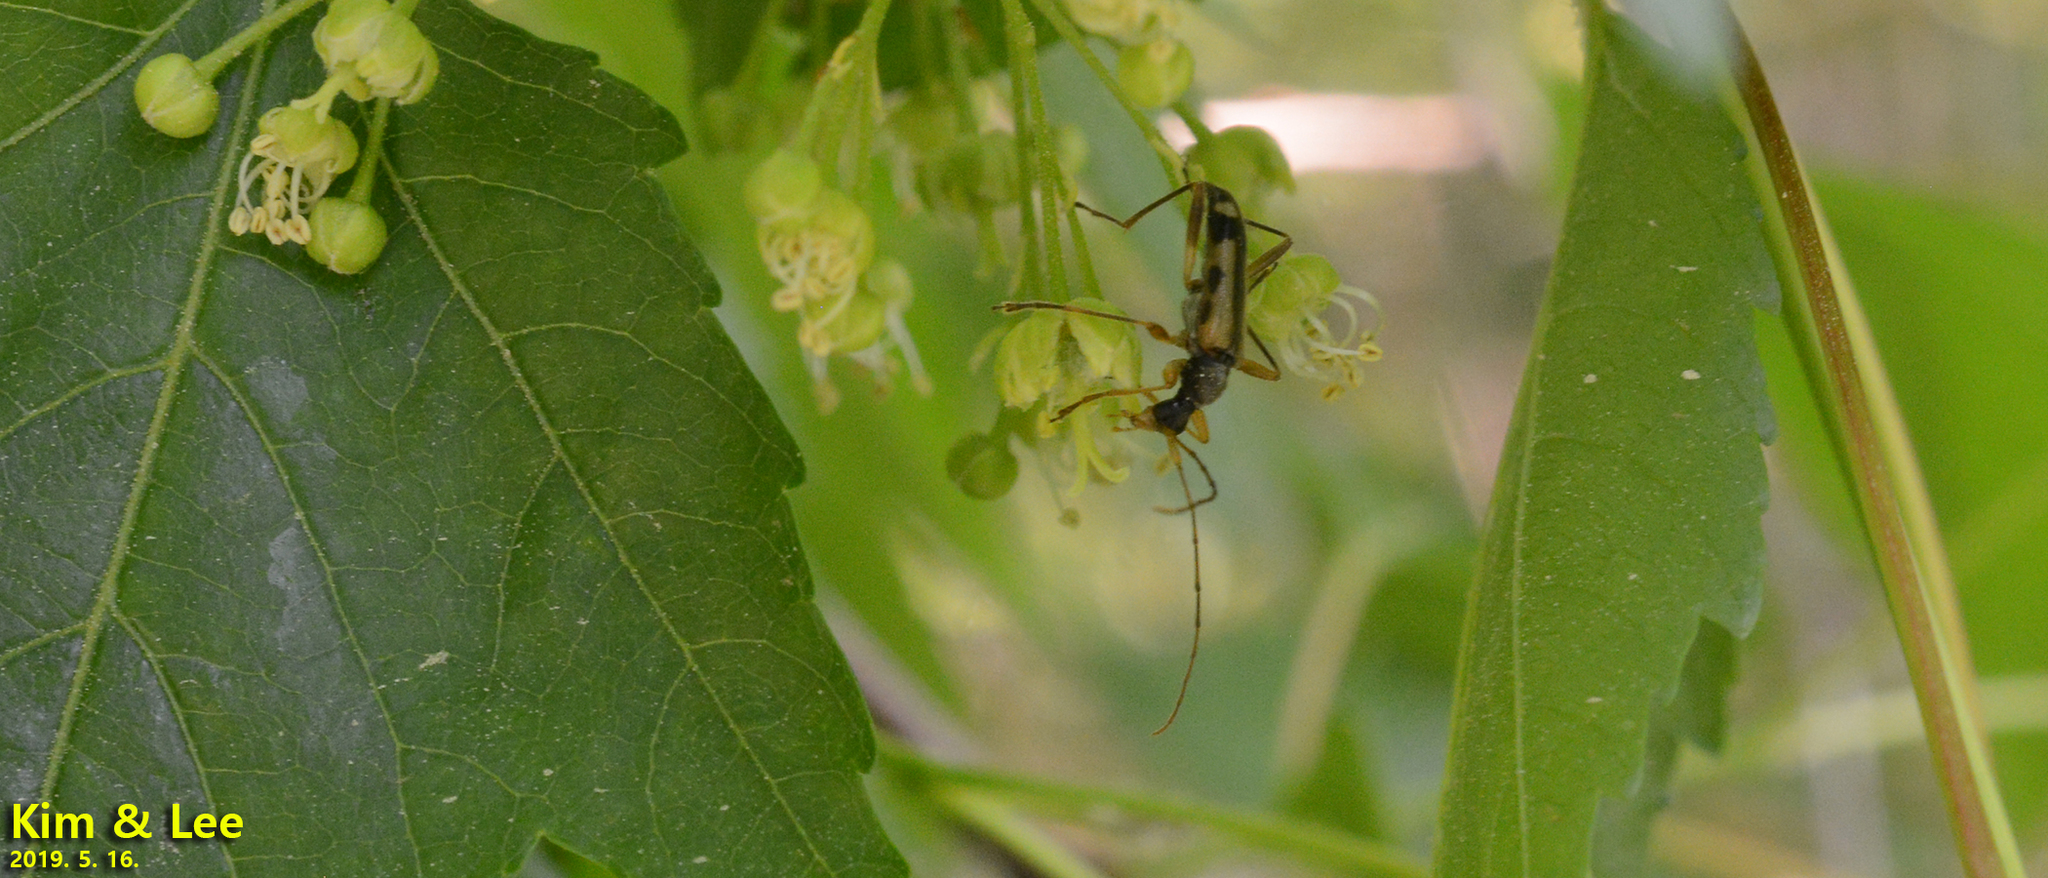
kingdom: Animalia
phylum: Arthropoda
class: Insecta
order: Coleoptera
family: Cerambycidae
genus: Pidonia
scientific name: Pidonia amurensis
